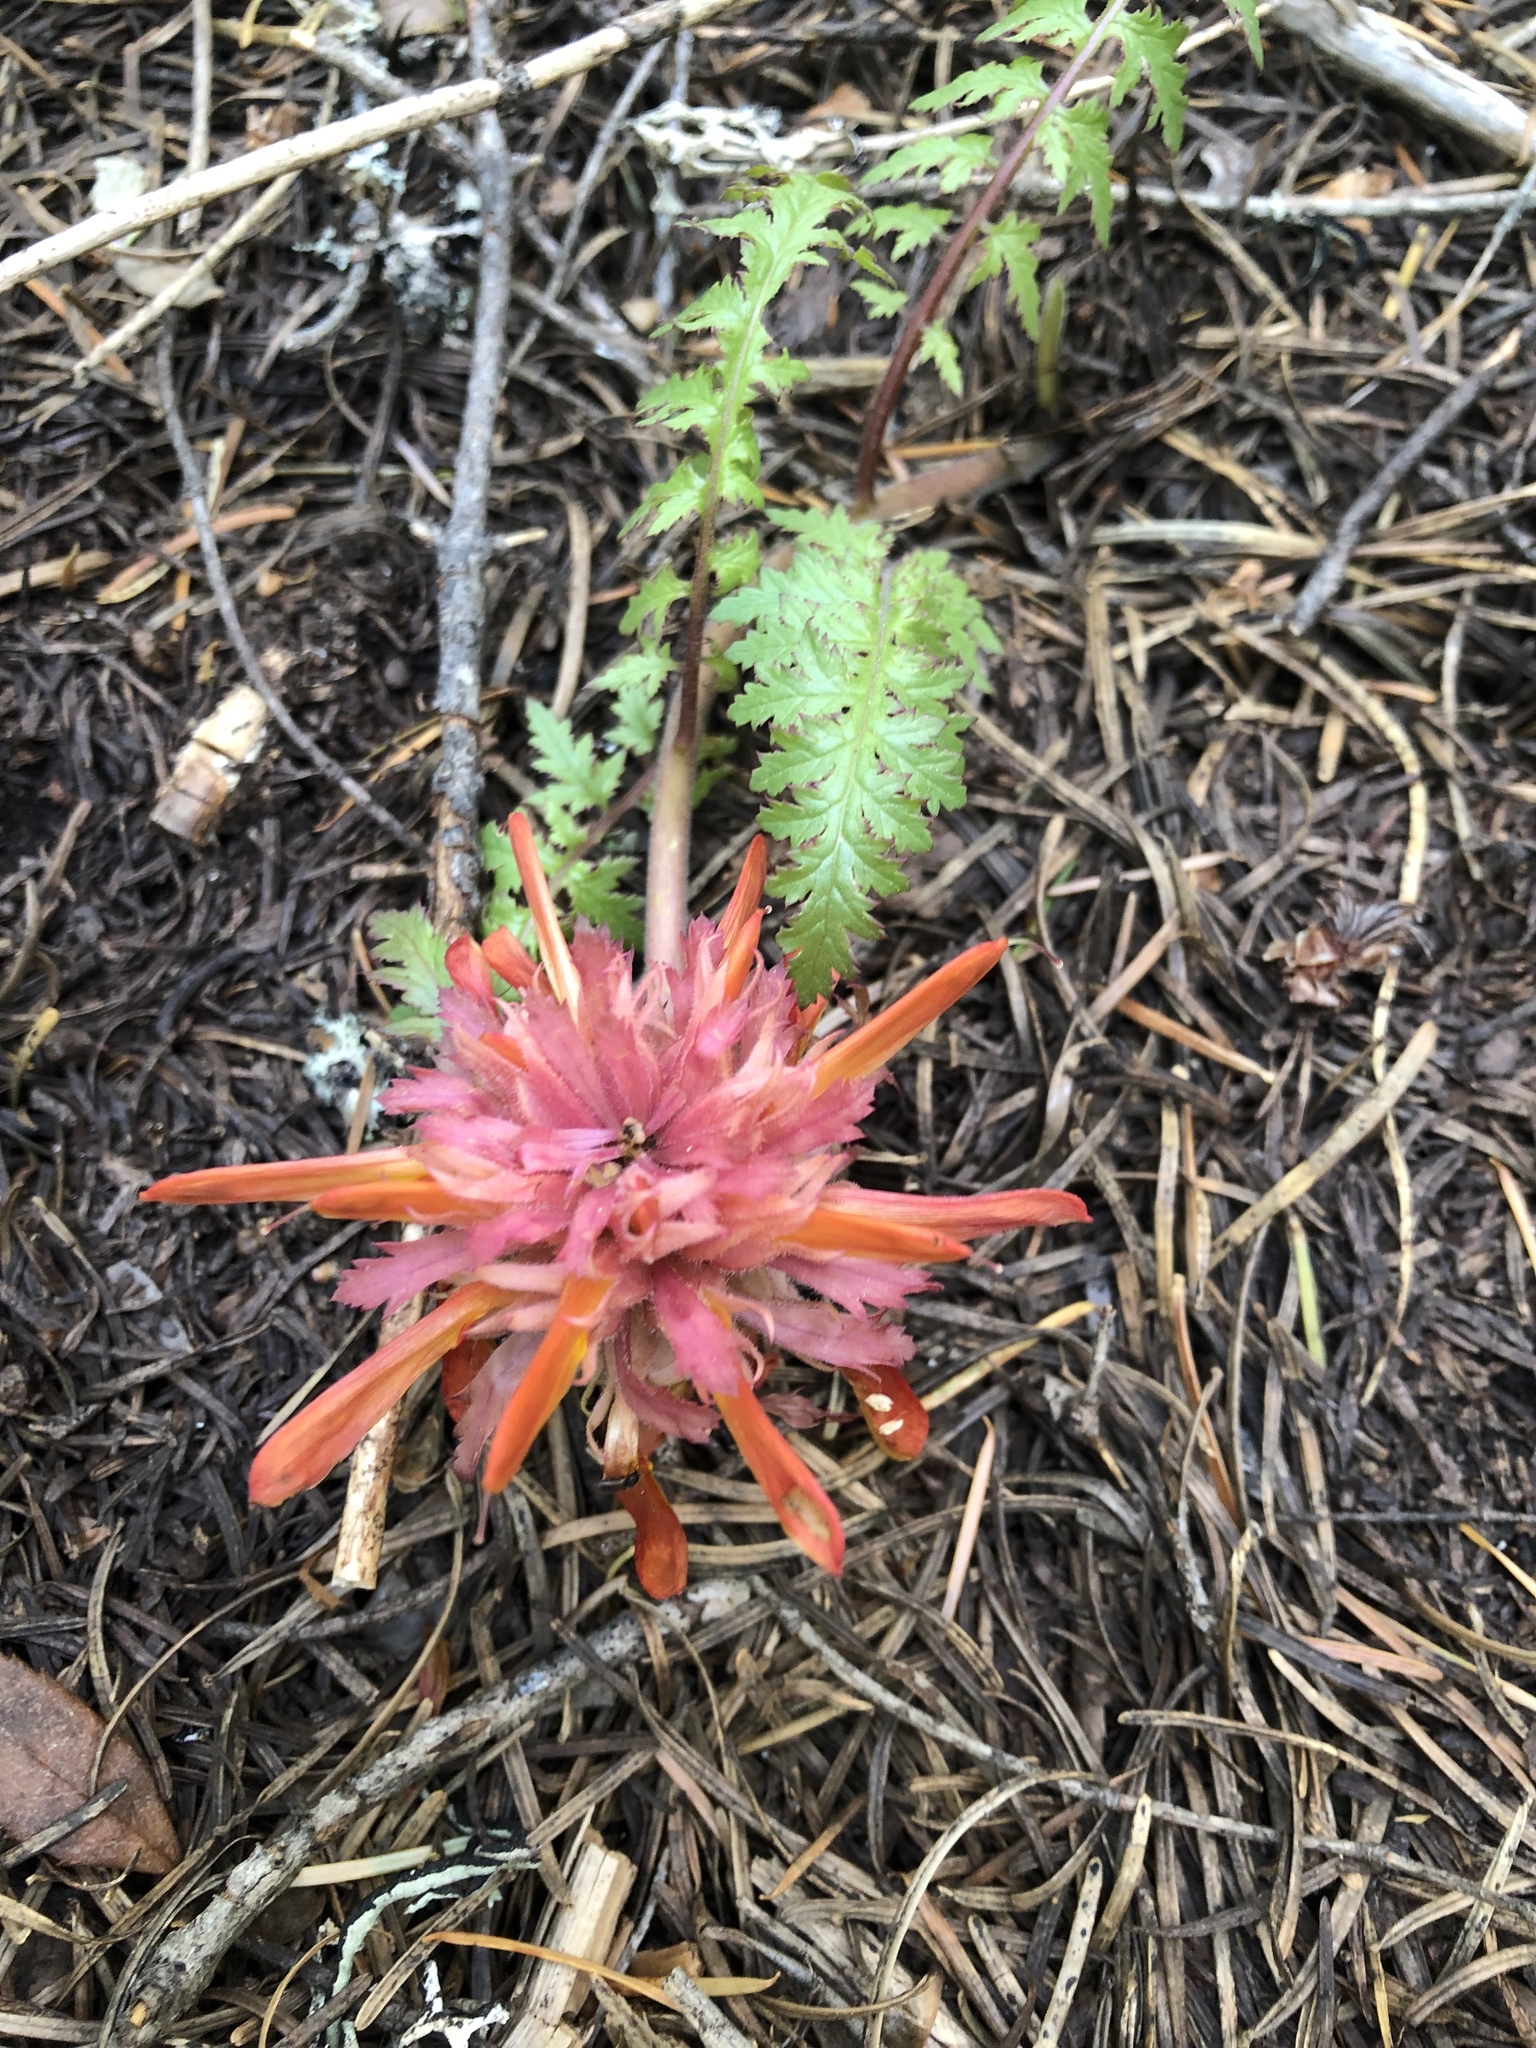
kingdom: Plantae
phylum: Tracheophyta
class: Magnoliopsida
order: Lamiales
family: Orobanchaceae
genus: Pedicularis
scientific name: Pedicularis densiflora
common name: Indian warrior
